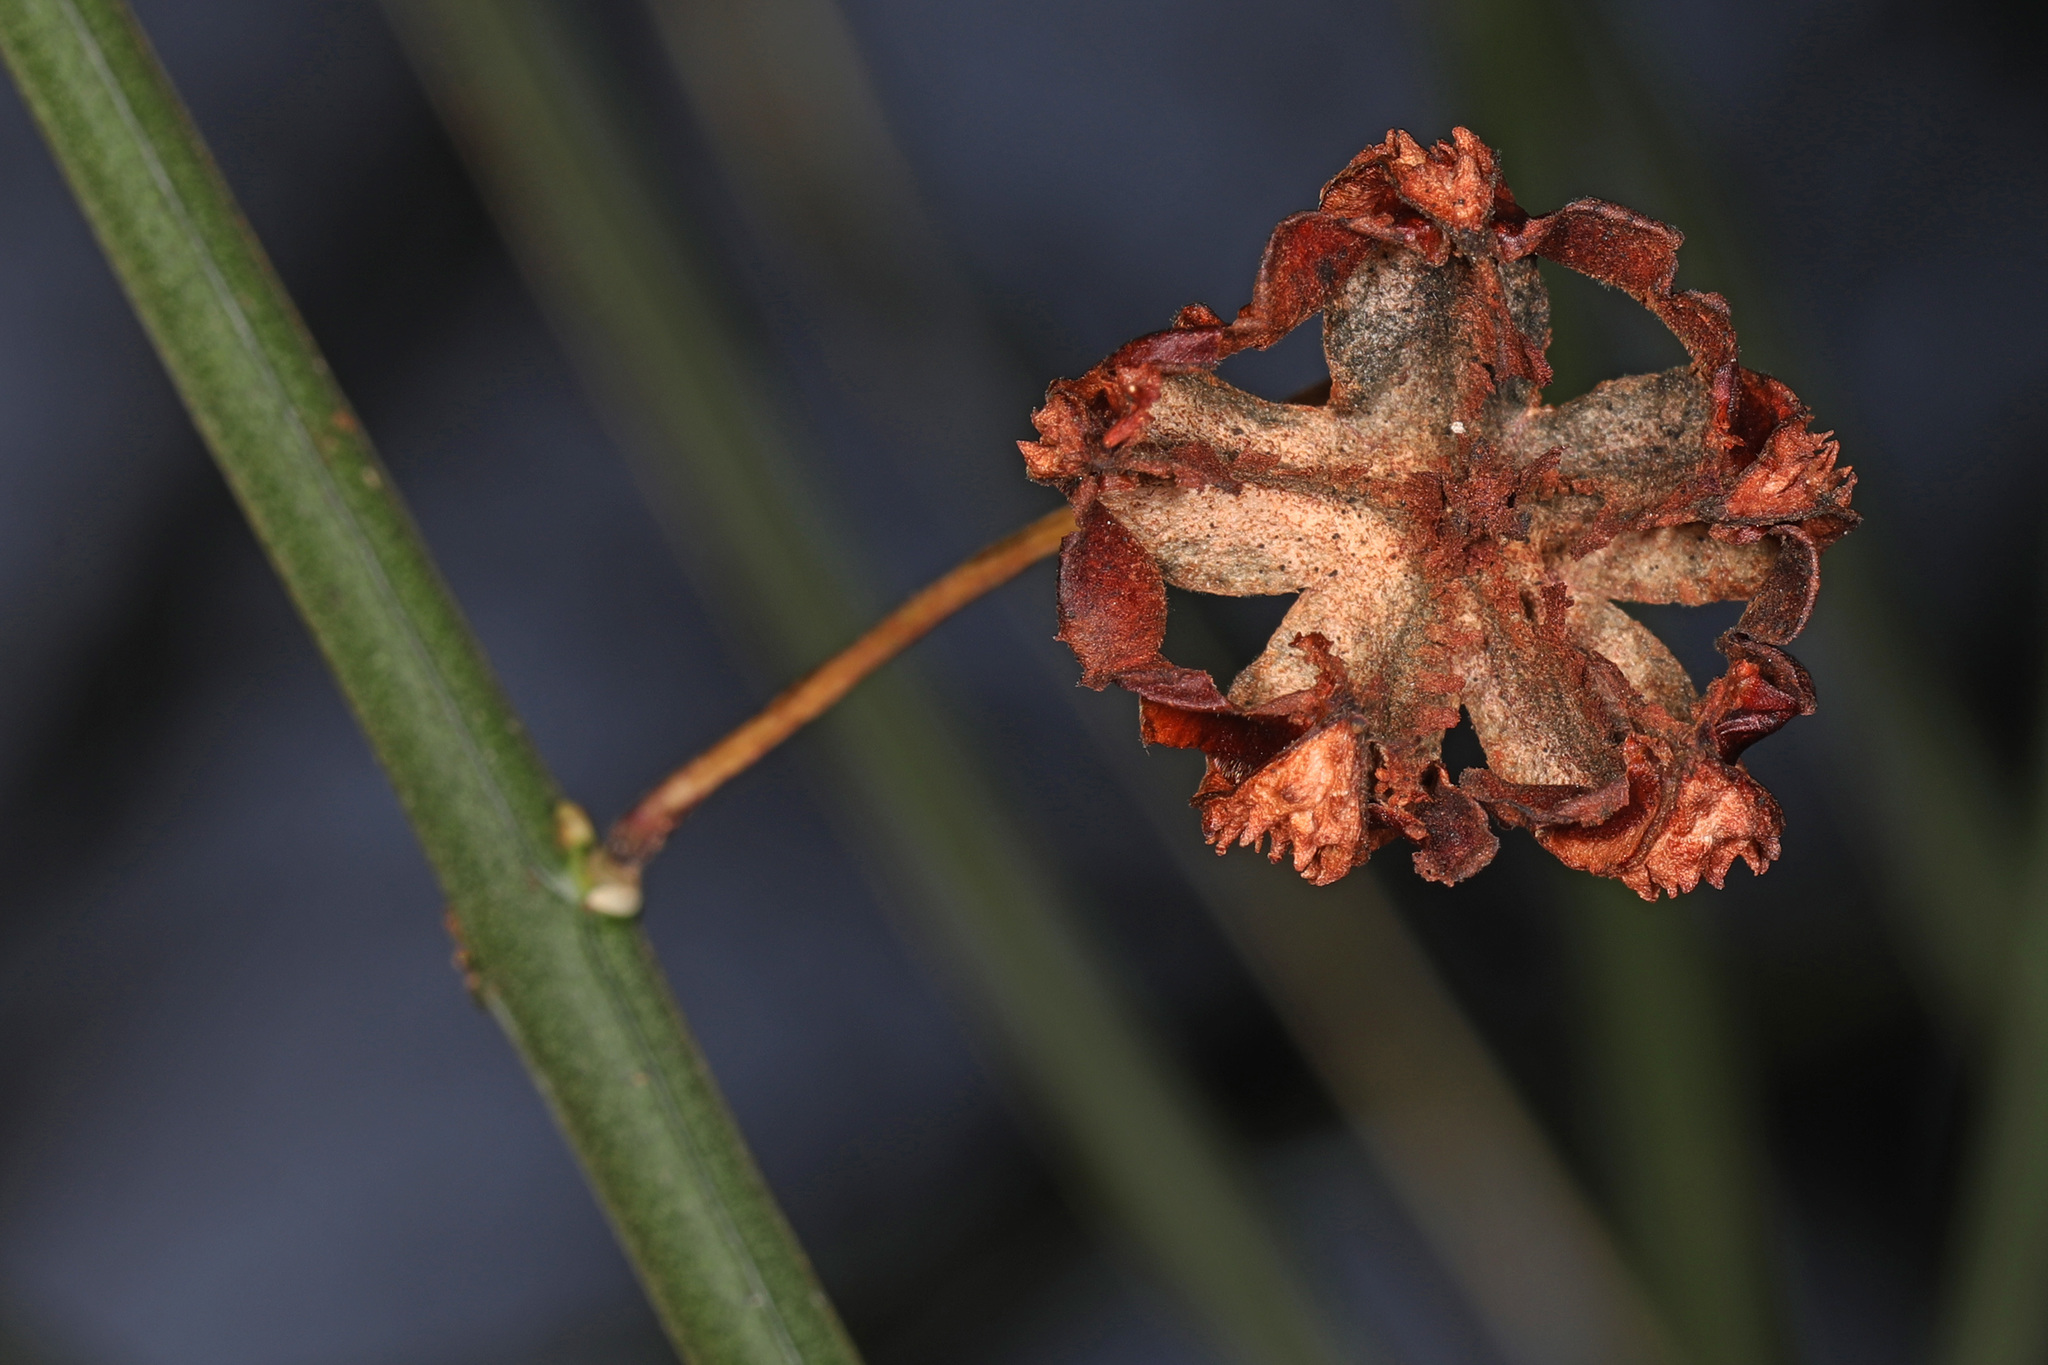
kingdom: Plantae
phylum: Tracheophyta
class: Magnoliopsida
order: Celastrales
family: Celastraceae
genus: Euonymus
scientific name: Euonymus americanus
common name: Bursting-heart
